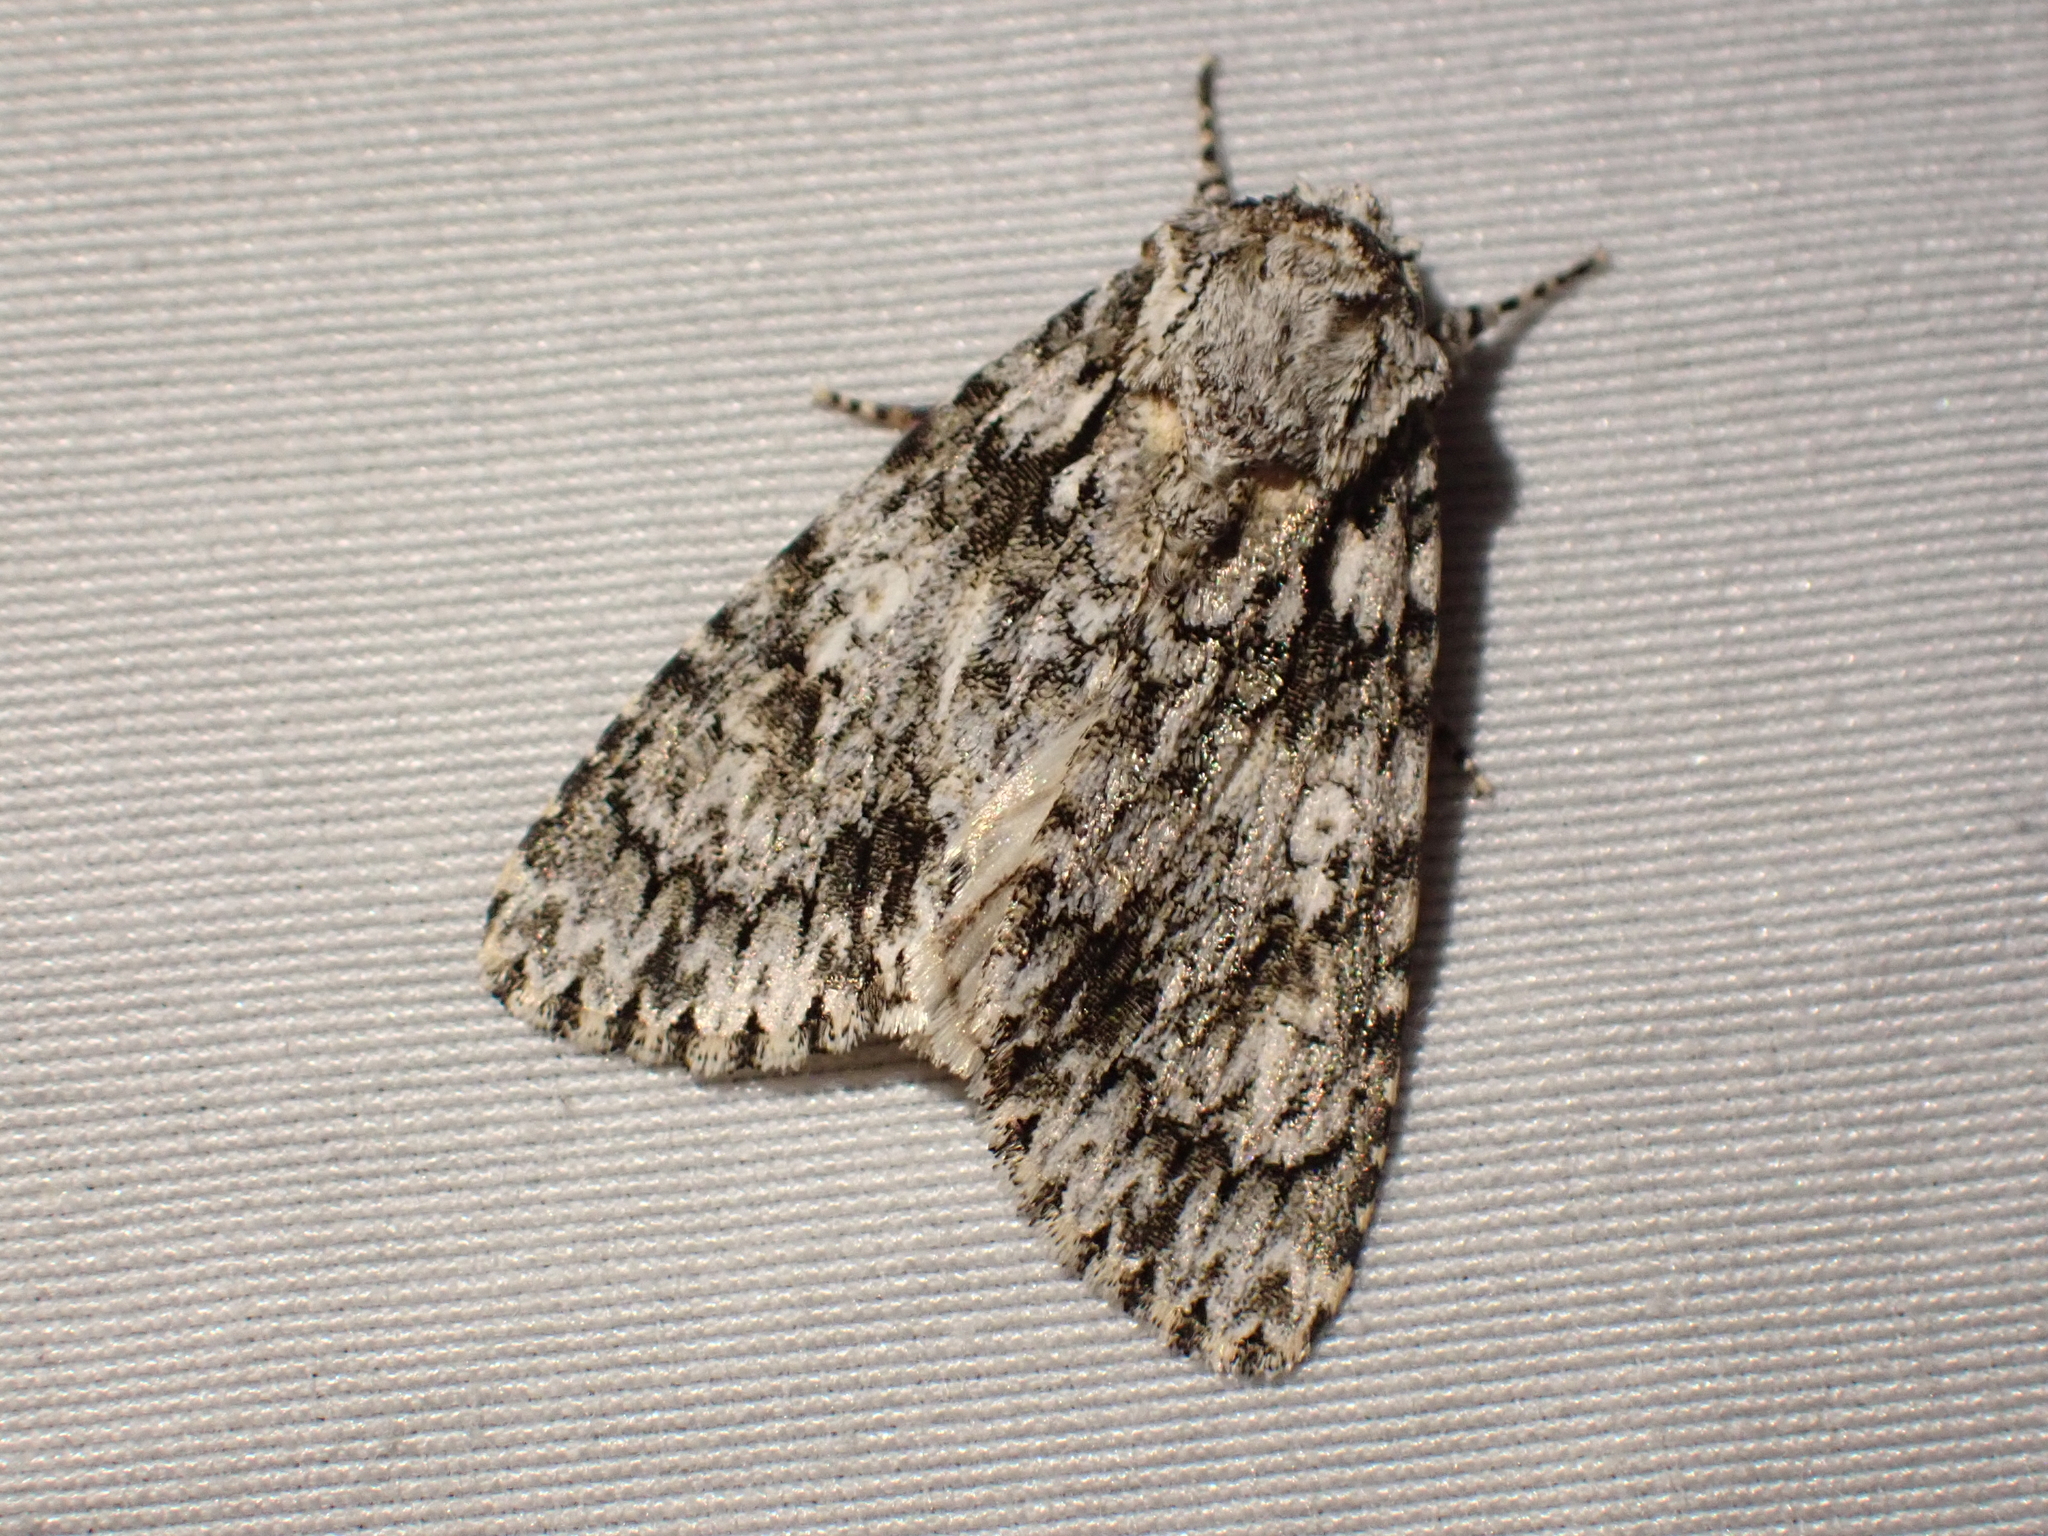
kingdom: Animalia
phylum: Arthropoda
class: Insecta
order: Lepidoptera
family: Noctuidae
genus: Acronicta
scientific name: Acronicta marmorata
